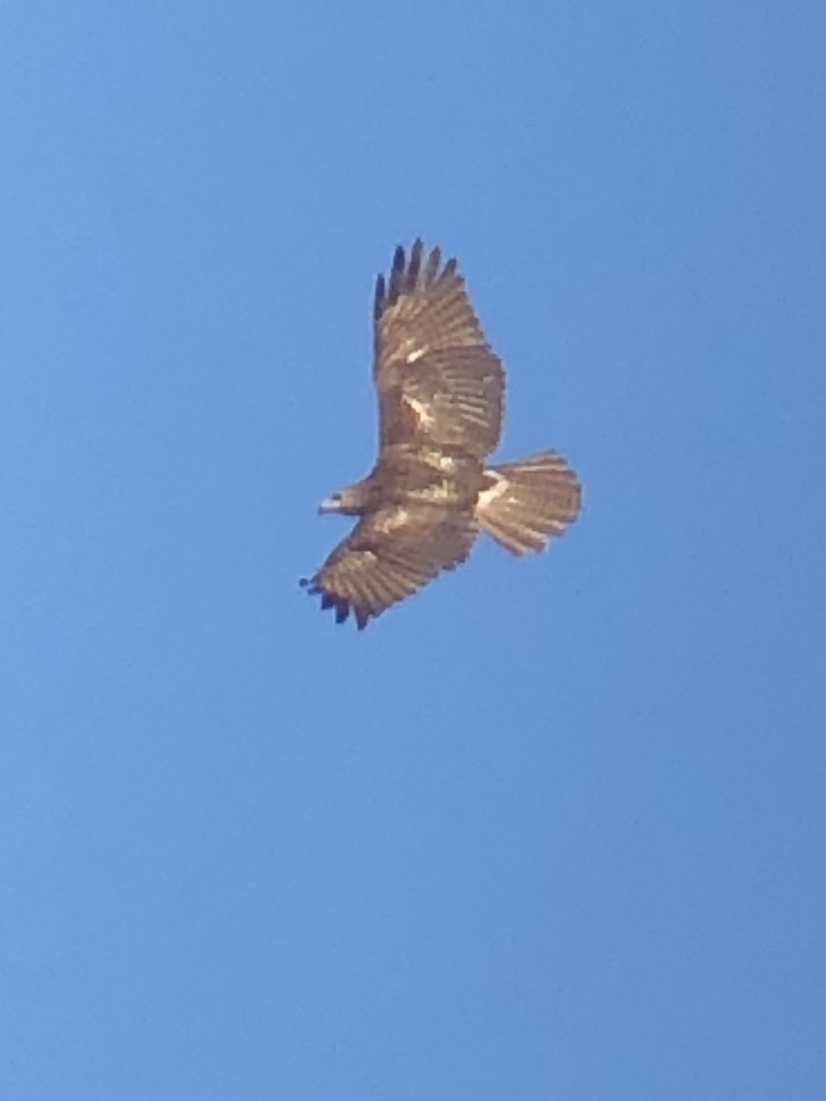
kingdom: Animalia
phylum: Chordata
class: Aves
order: Accipitriformes
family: Accipitridae
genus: Buteo
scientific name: Buteo jamaicensis
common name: Red-tailed hawk
